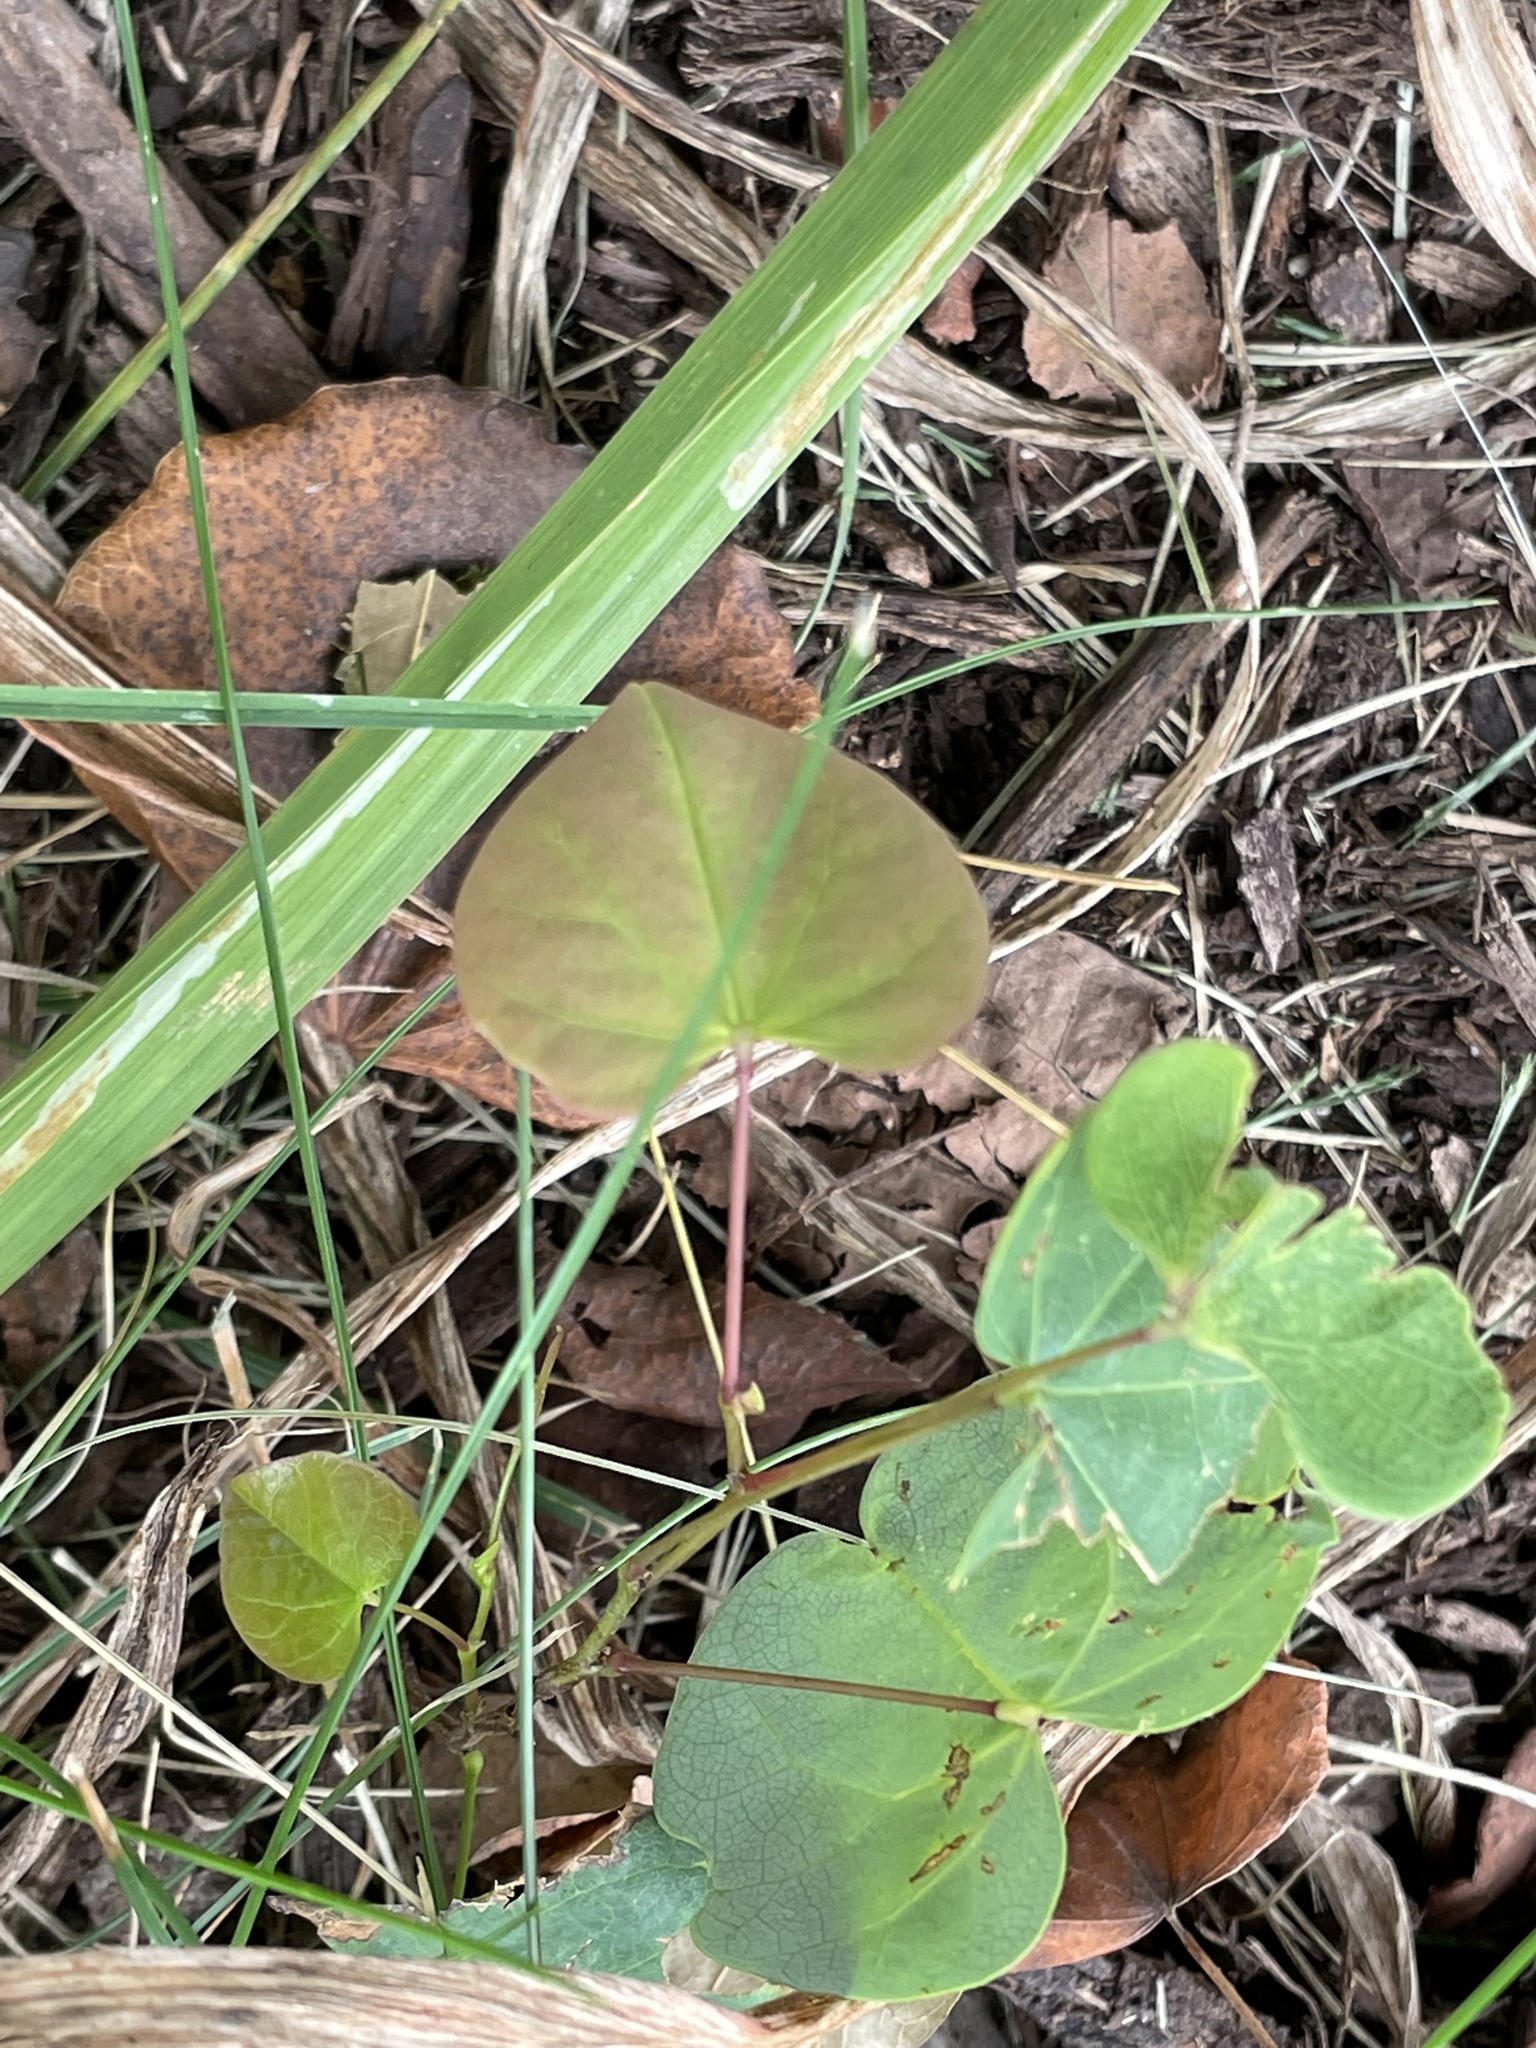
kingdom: Plantae
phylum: Tracheophyta
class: Magnoliopsida
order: Fabales
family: Fabaceae
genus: Cercis
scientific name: Cercis canadensis
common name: Eastern redbud
